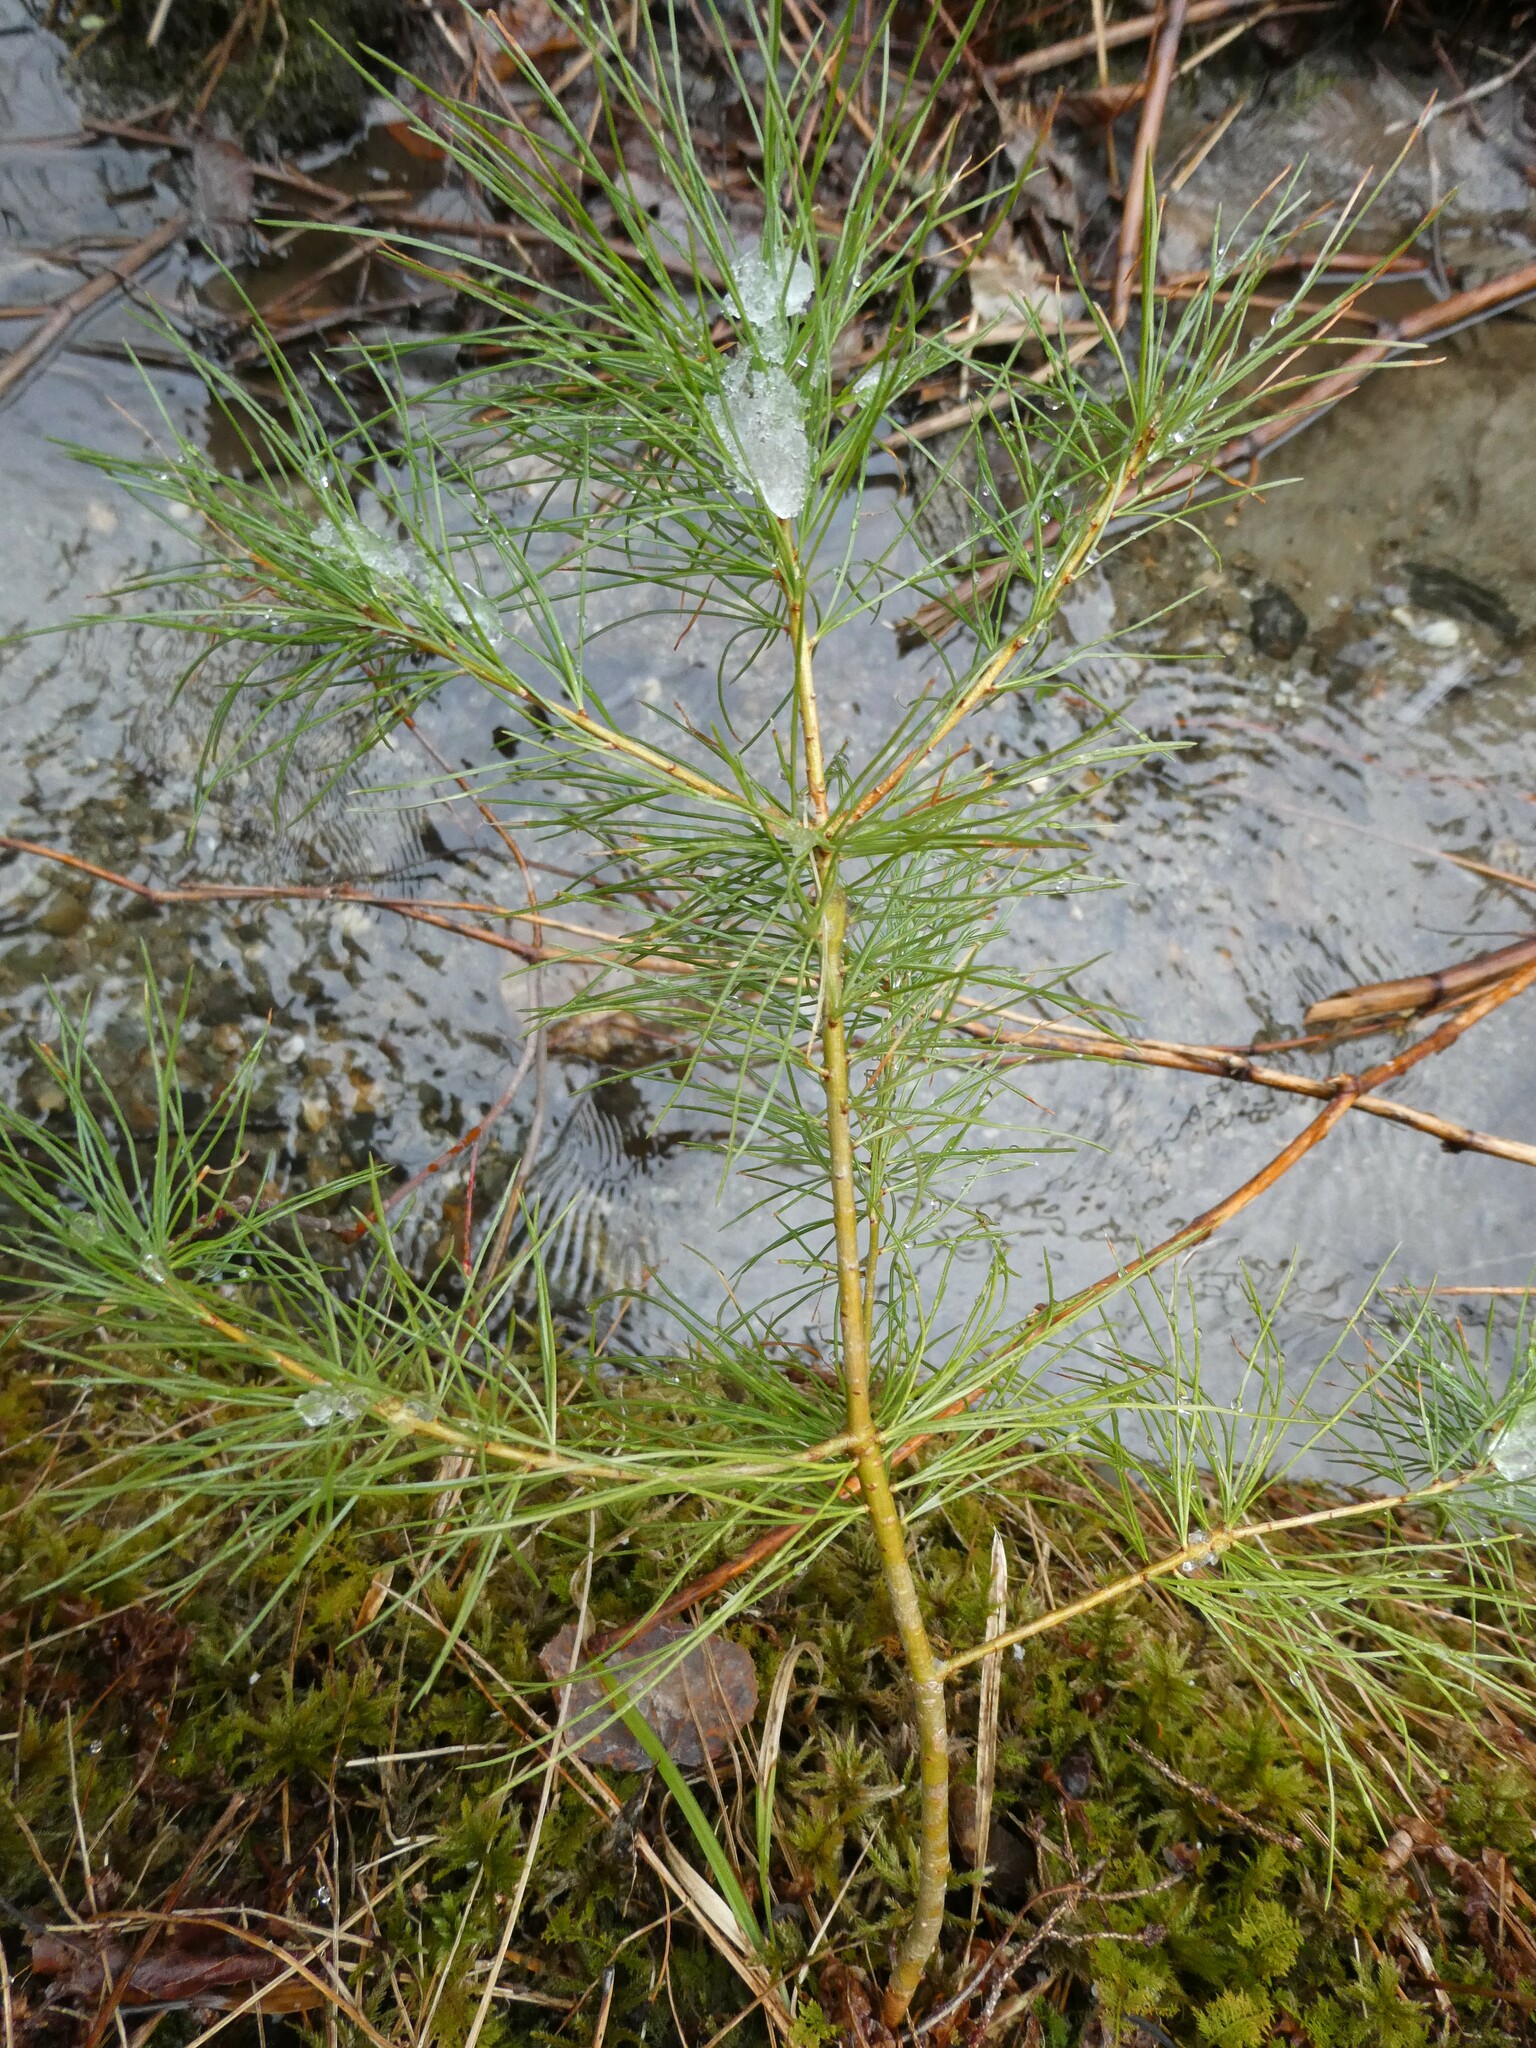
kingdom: Plantae
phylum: Tracheophyta
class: Pinopsida
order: Pinales
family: Pinaceae
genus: Pinus
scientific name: Pinus strobus
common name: Weymouth pine
